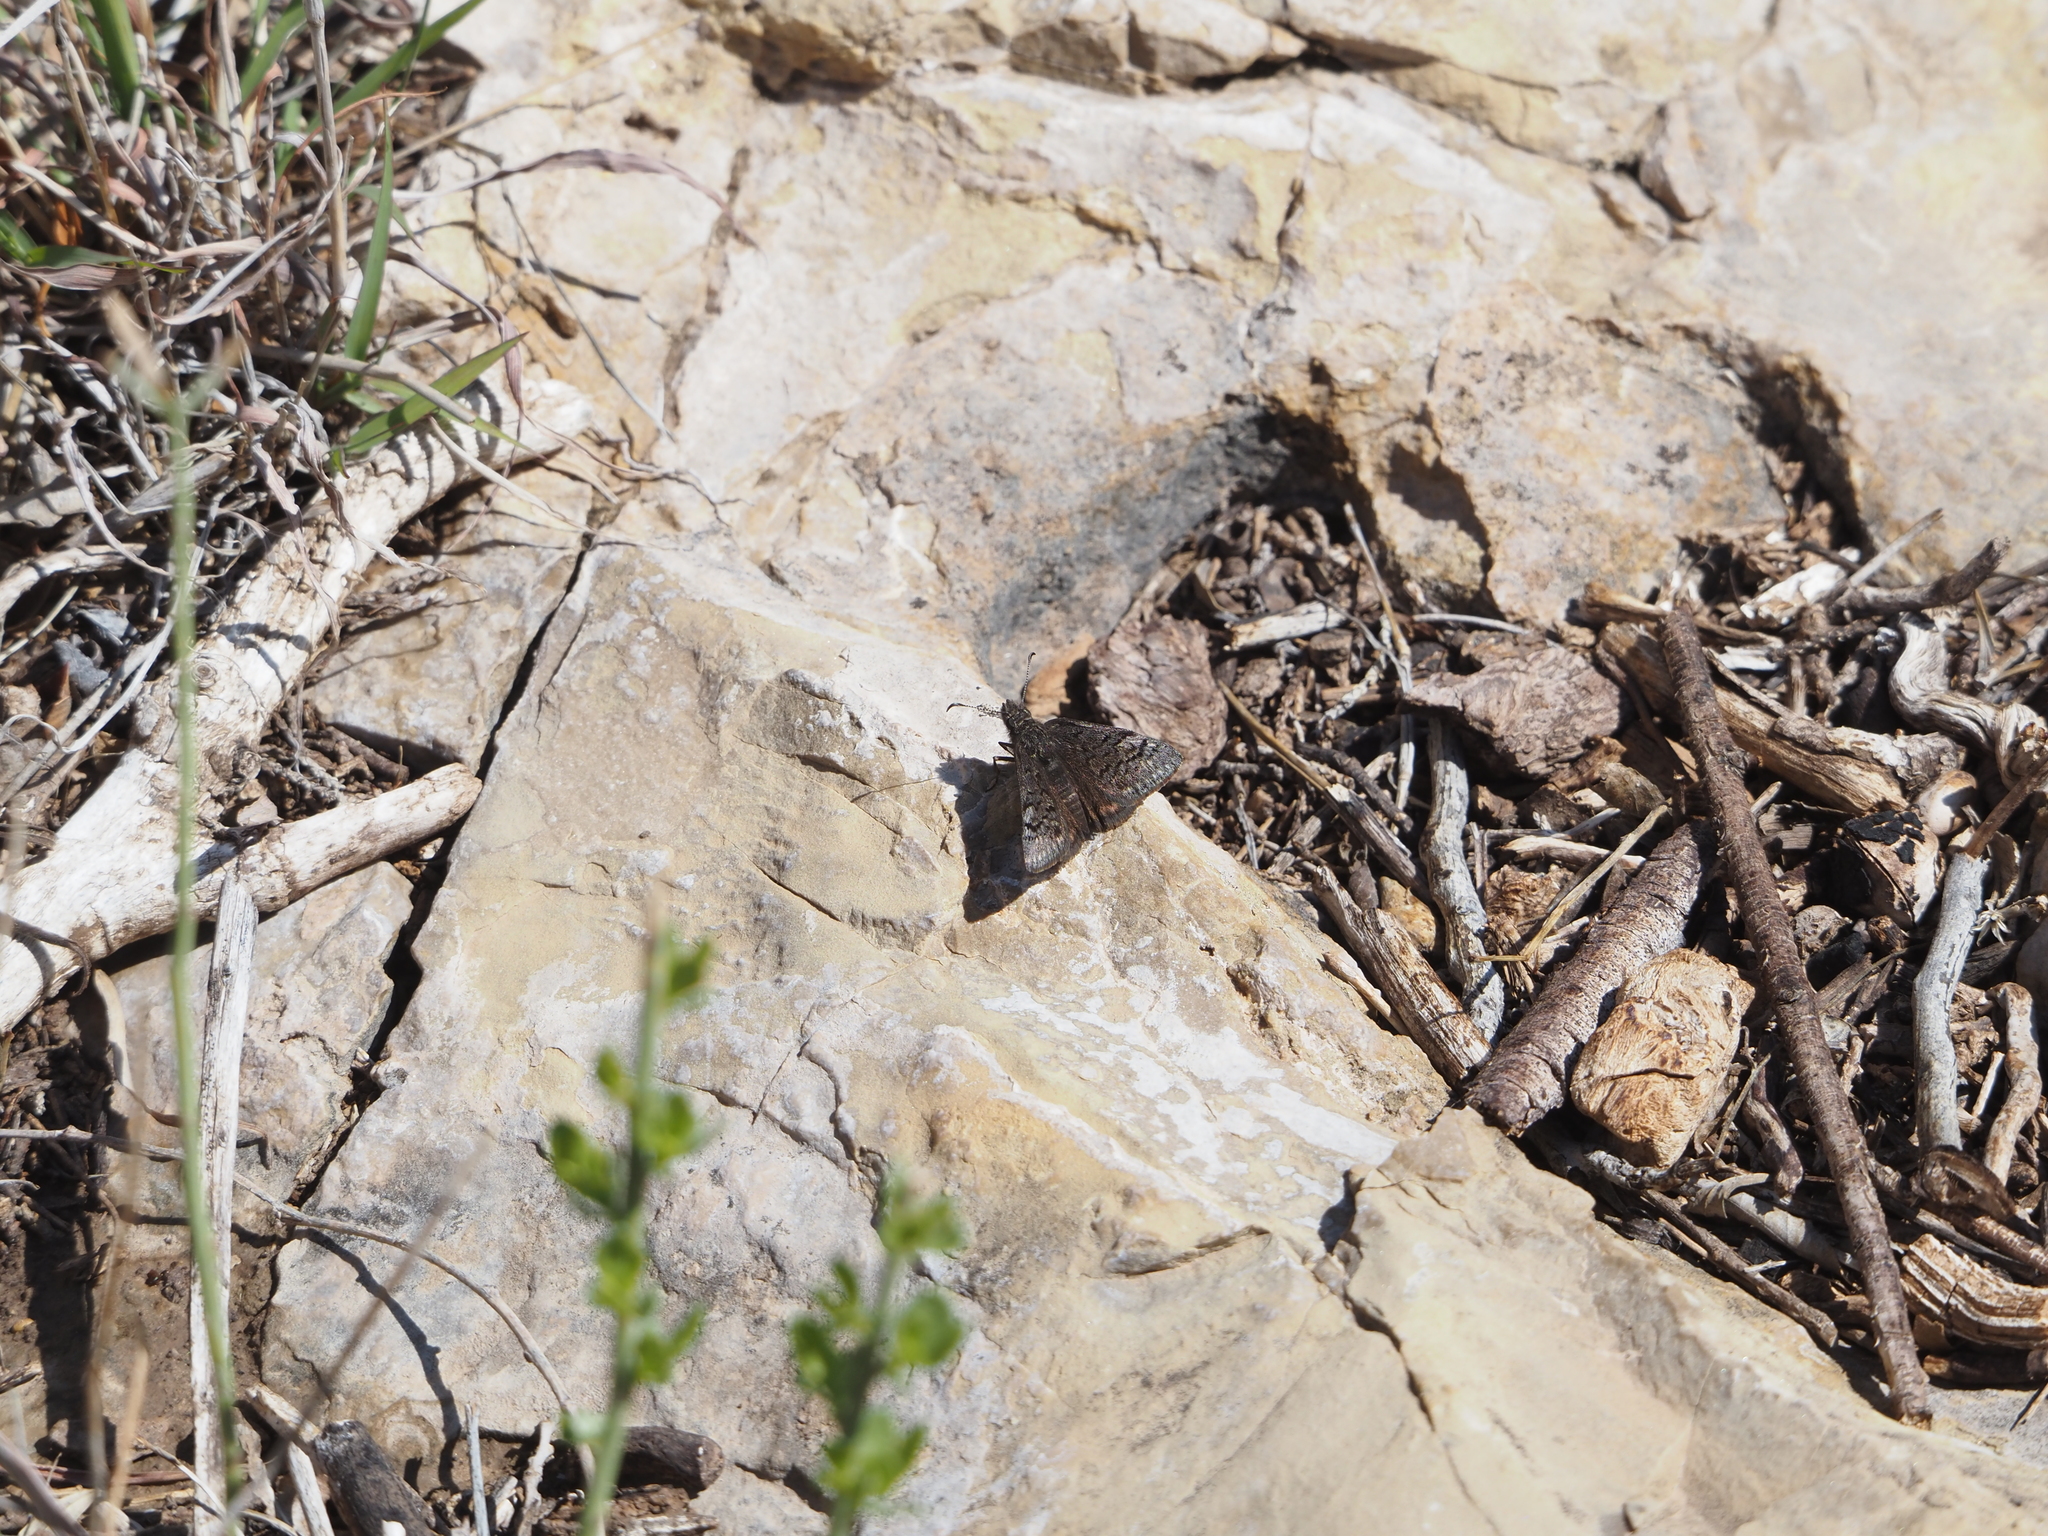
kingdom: Animalia
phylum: Arthropoda
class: Insecta
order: Lepidoptera
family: Hesperiidae
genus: Erynnis
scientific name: Erynnis brizo
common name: Sleepy duskywing
